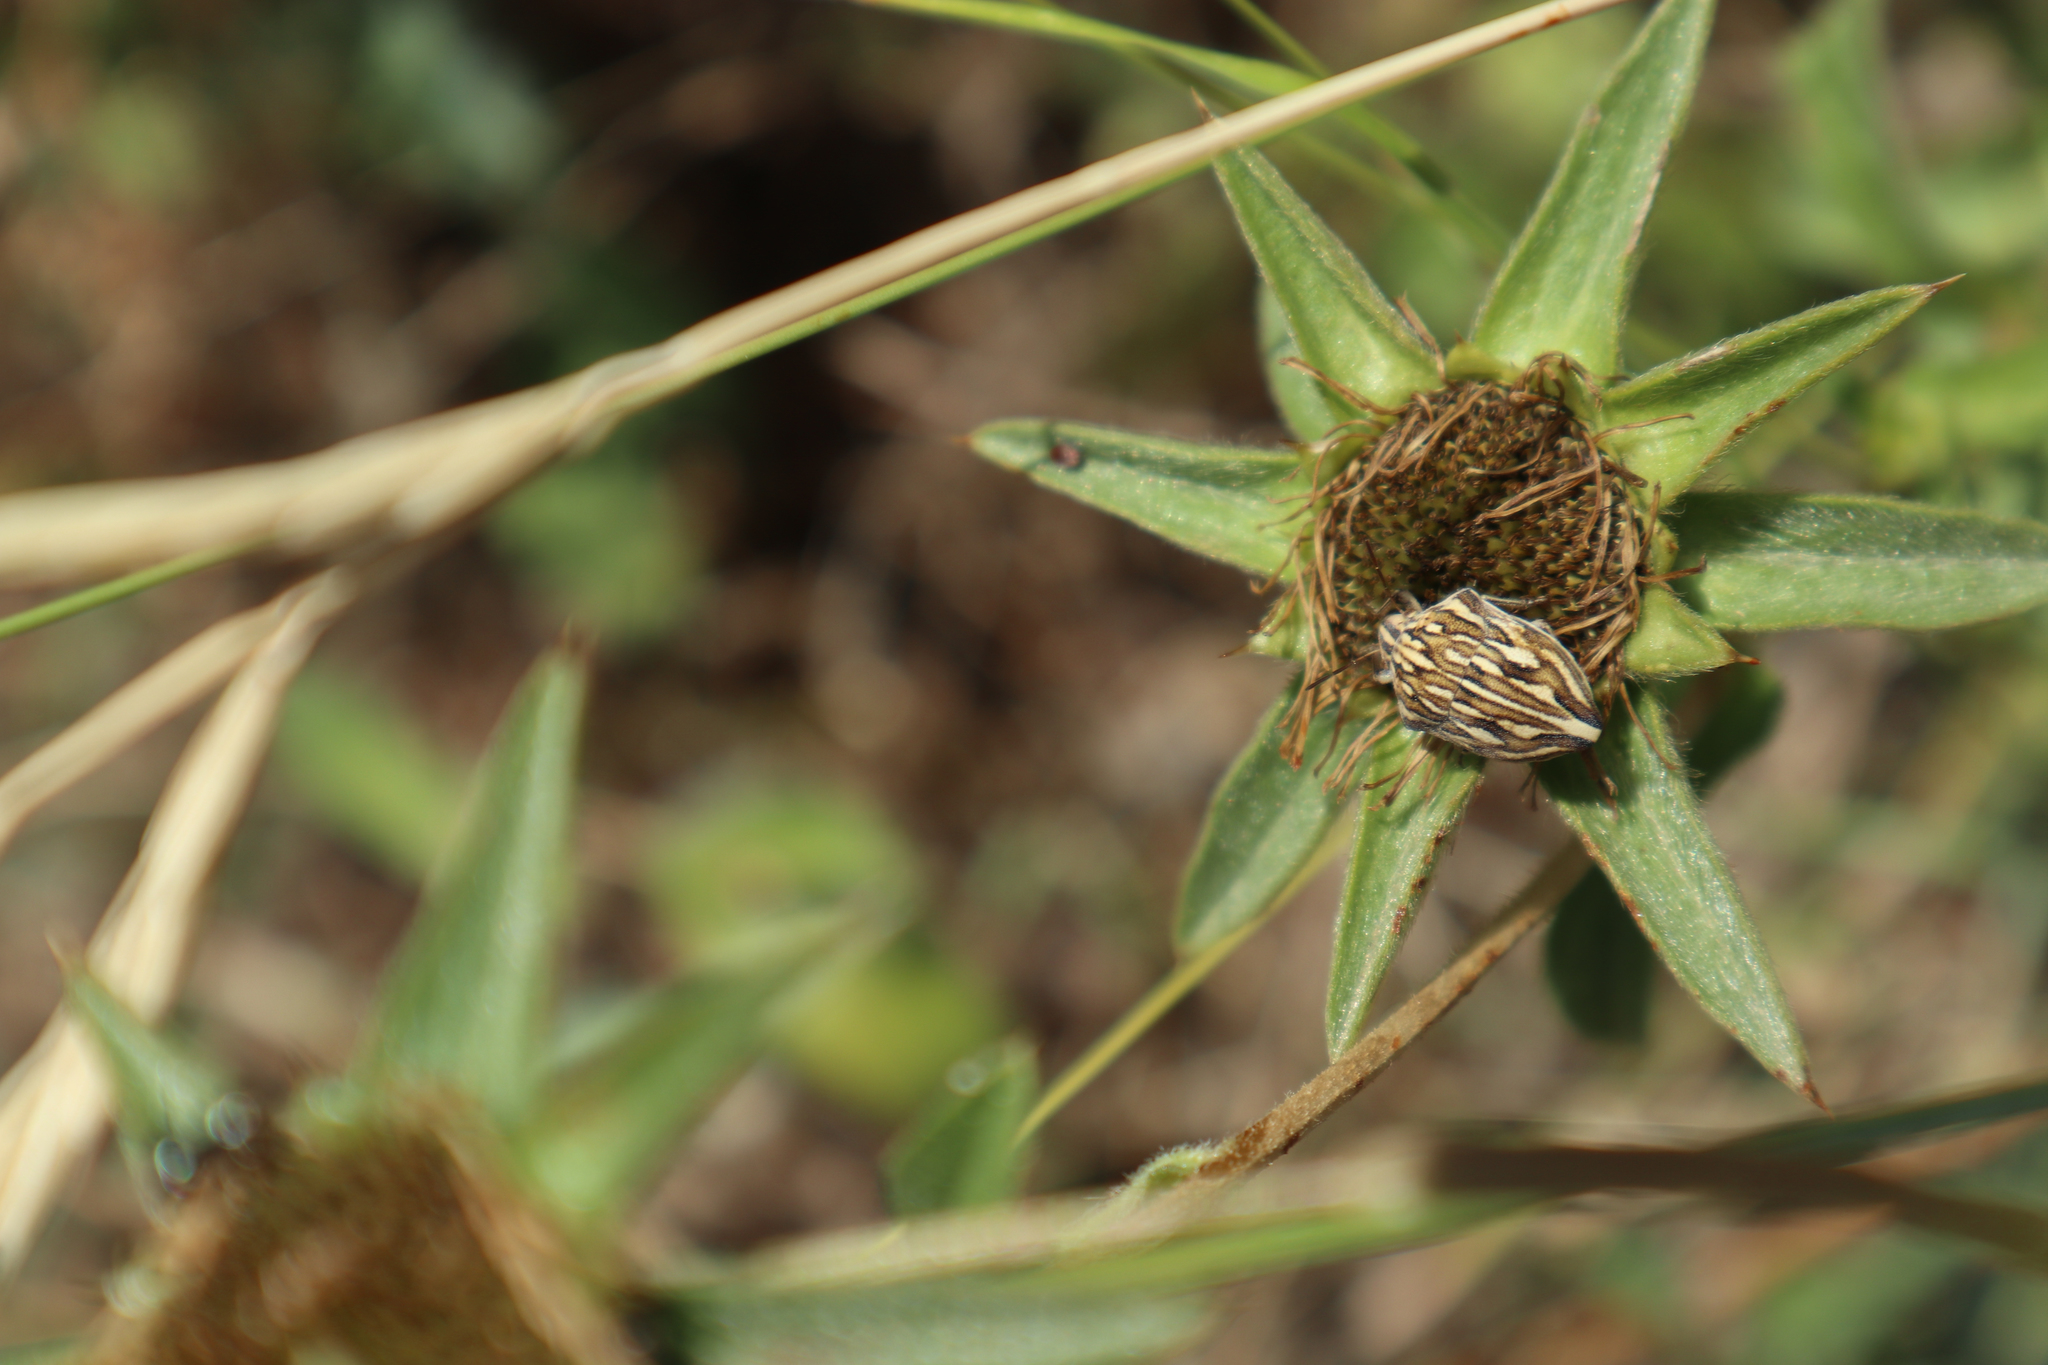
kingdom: Animalia
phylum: Arthropoda
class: Insecta
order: Hemiptera
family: Scutelleridae
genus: Odontotarsus
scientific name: Odontotarsus robustus
